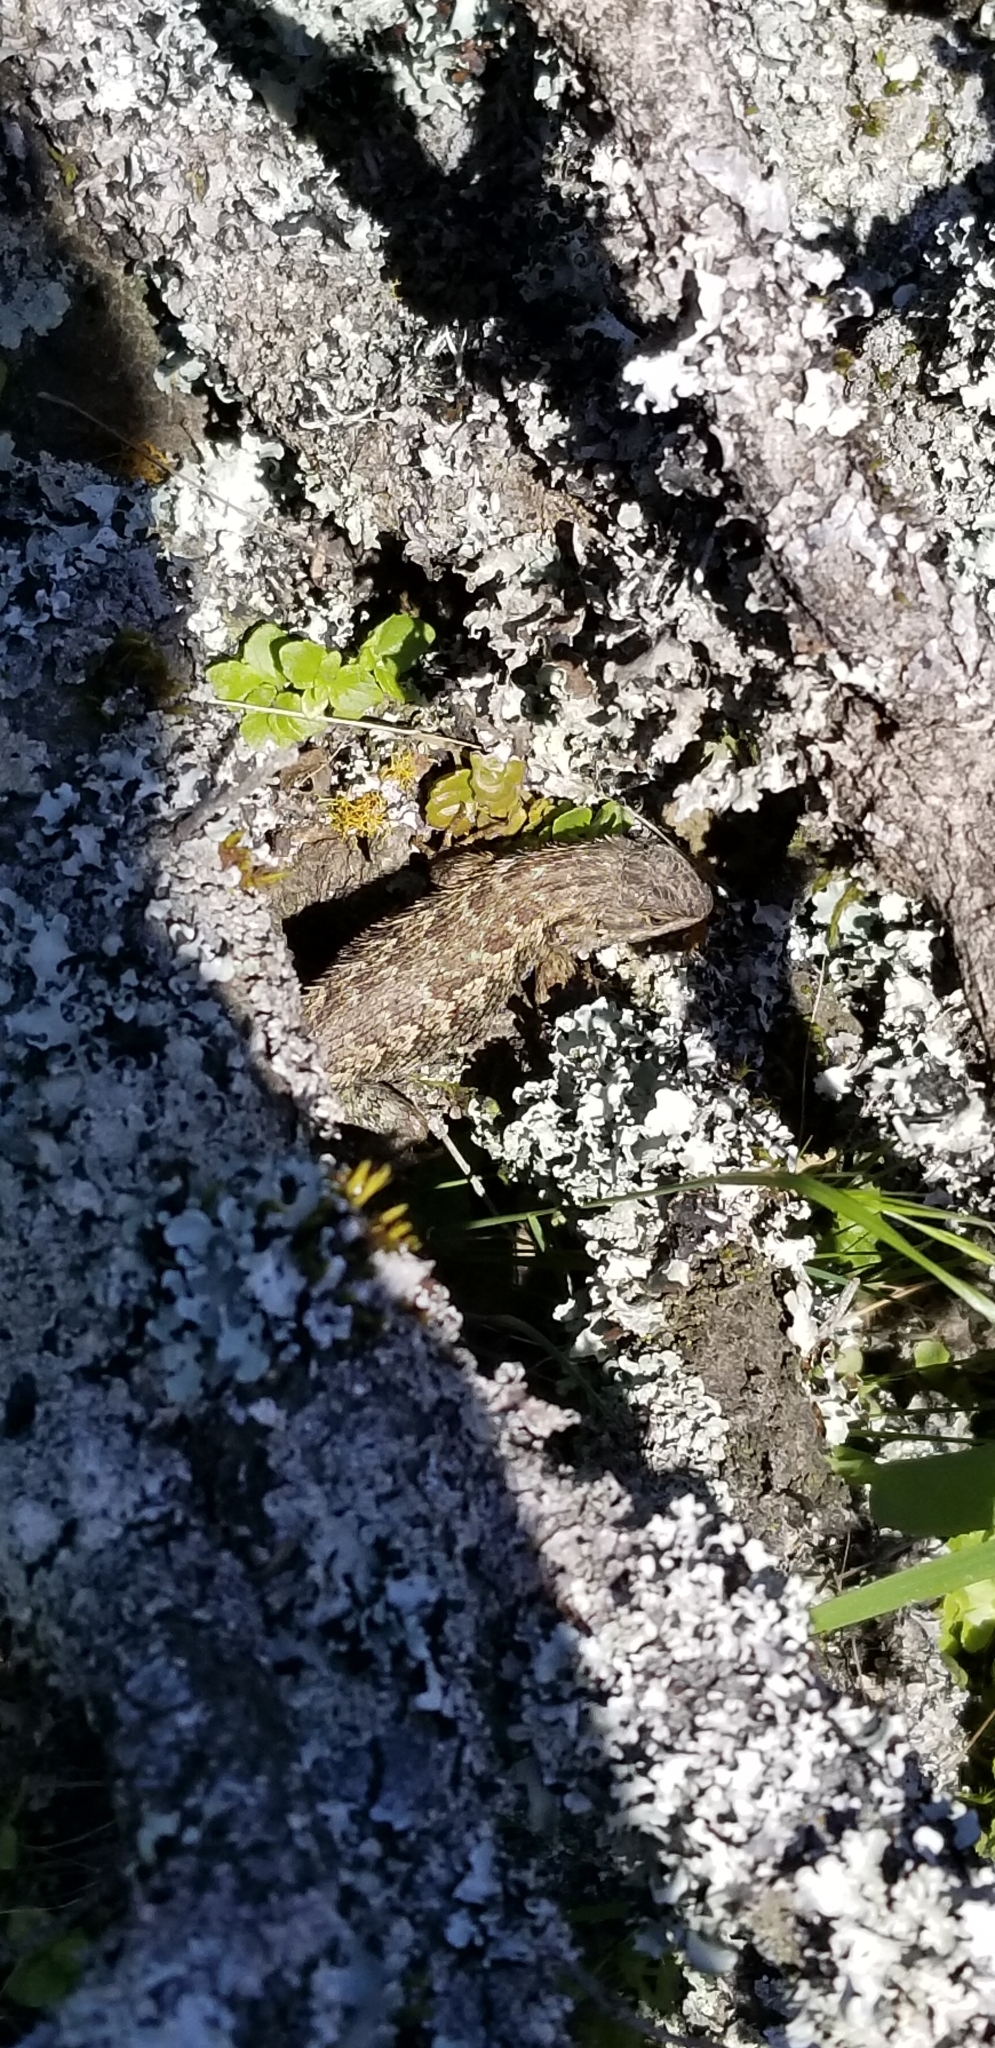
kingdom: Animalia
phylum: Chordata
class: Squamata
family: Phrynosomatidae
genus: Sceloporus
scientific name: Sceloporus occidentalis
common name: Western fence lizard
